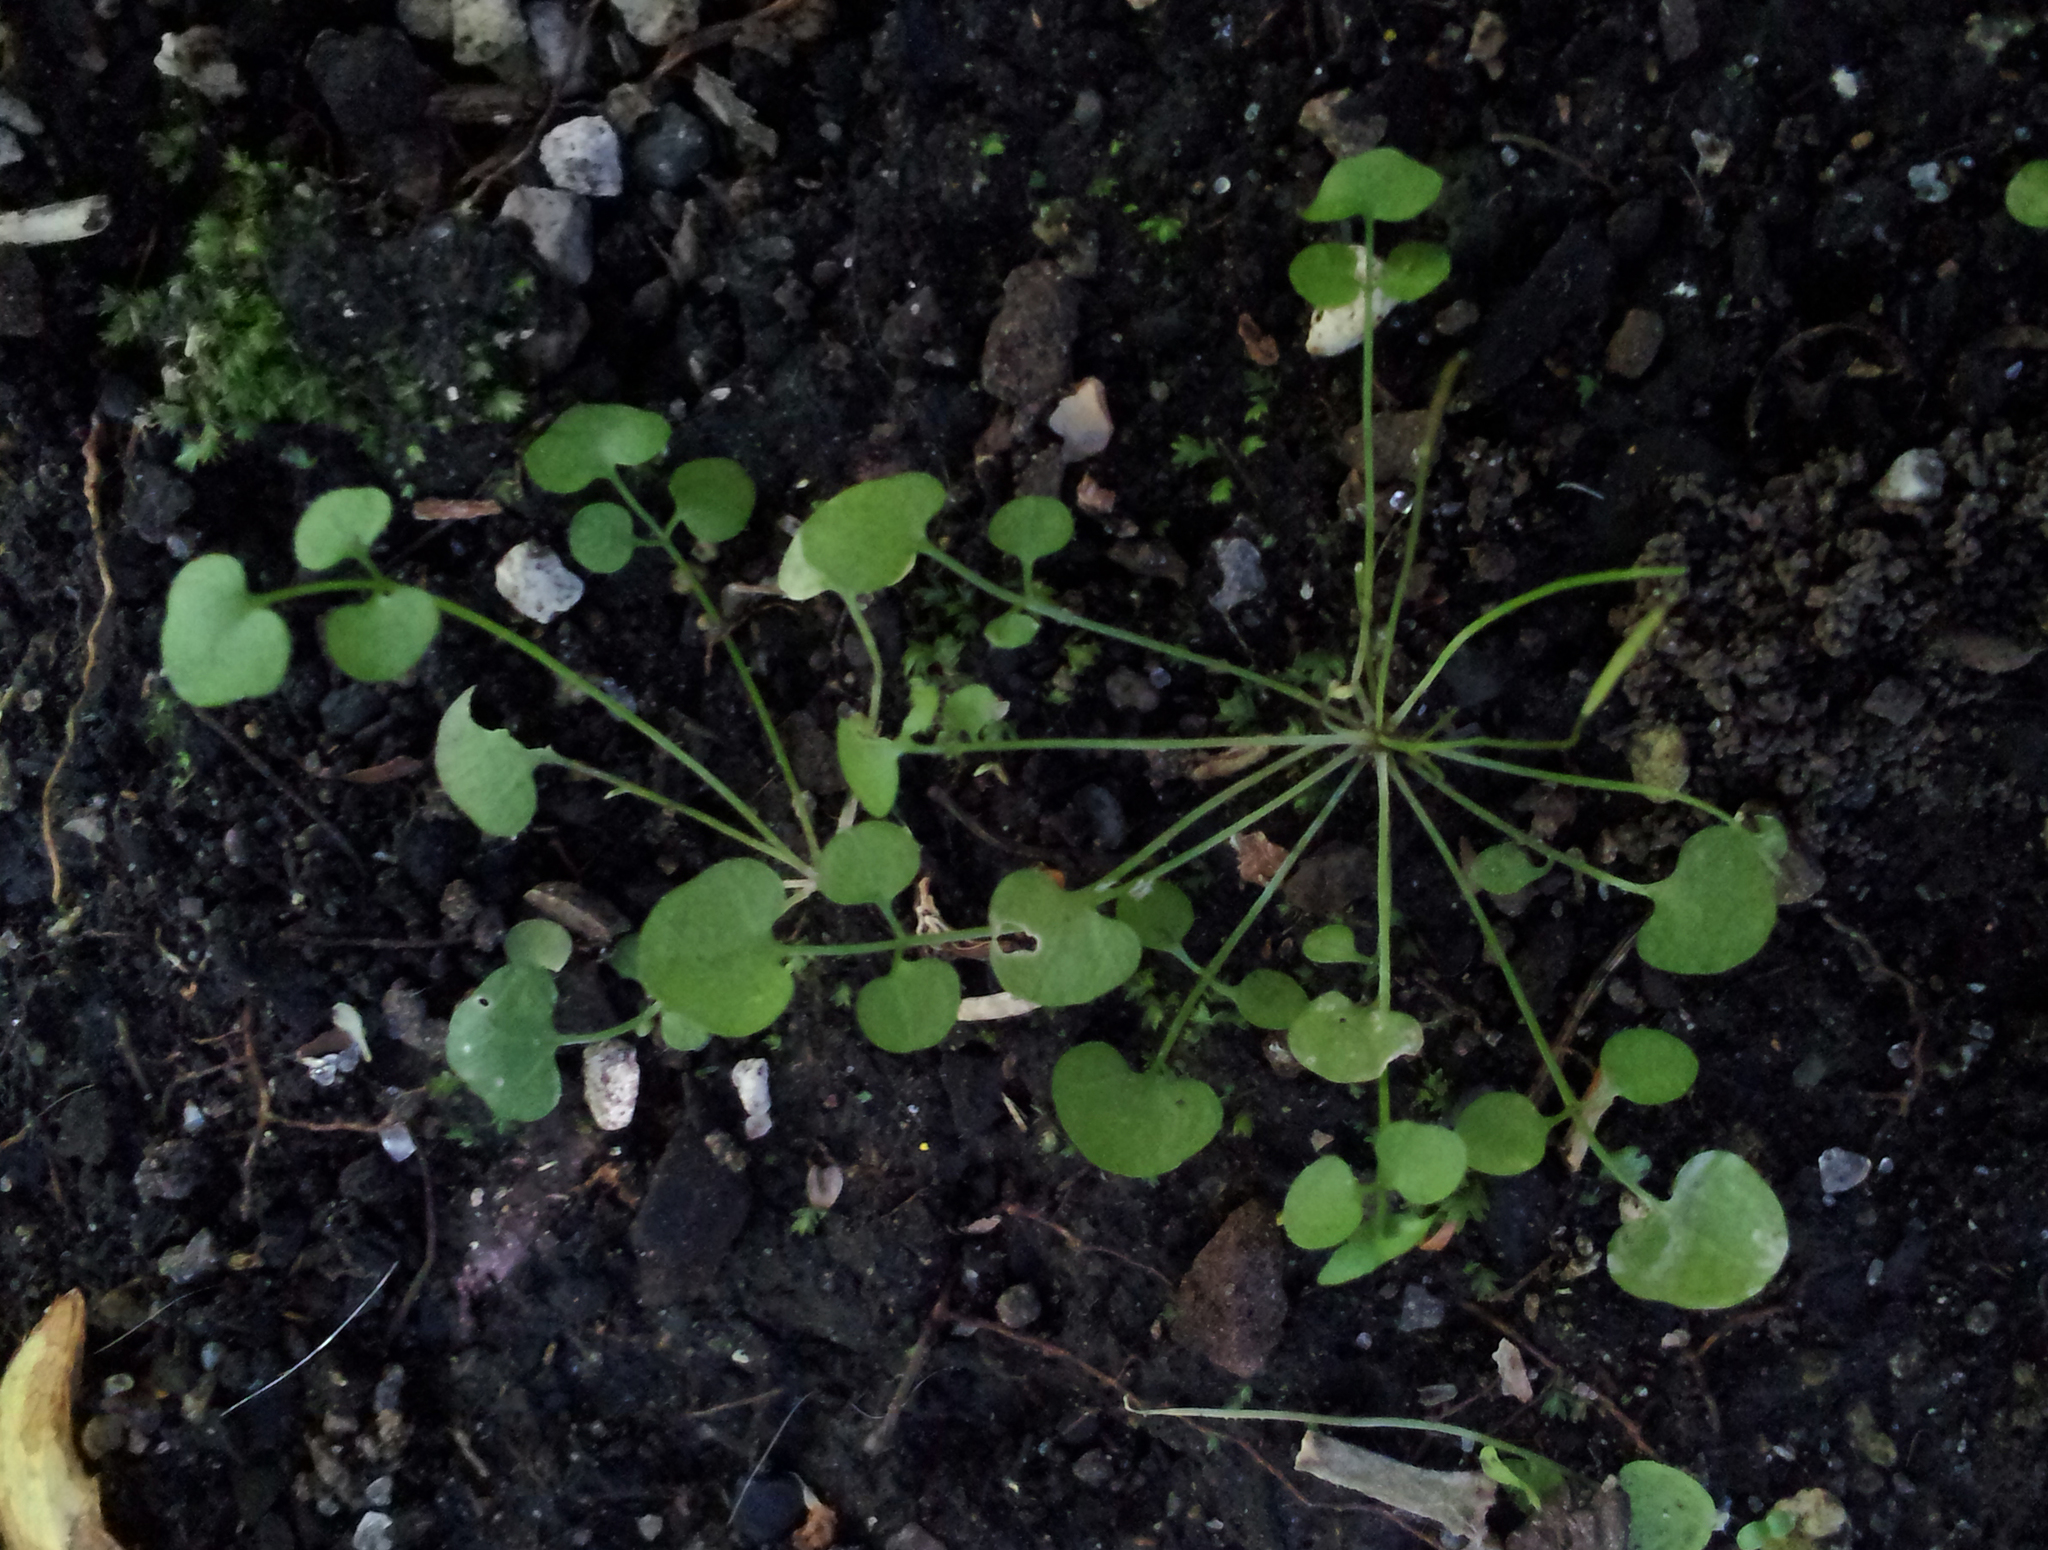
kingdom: Plantae
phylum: Tracheophyta
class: Magnoliopsida
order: Brassicales
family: Brassicaceae
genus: Cardamine
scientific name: Cardamine heleniae
